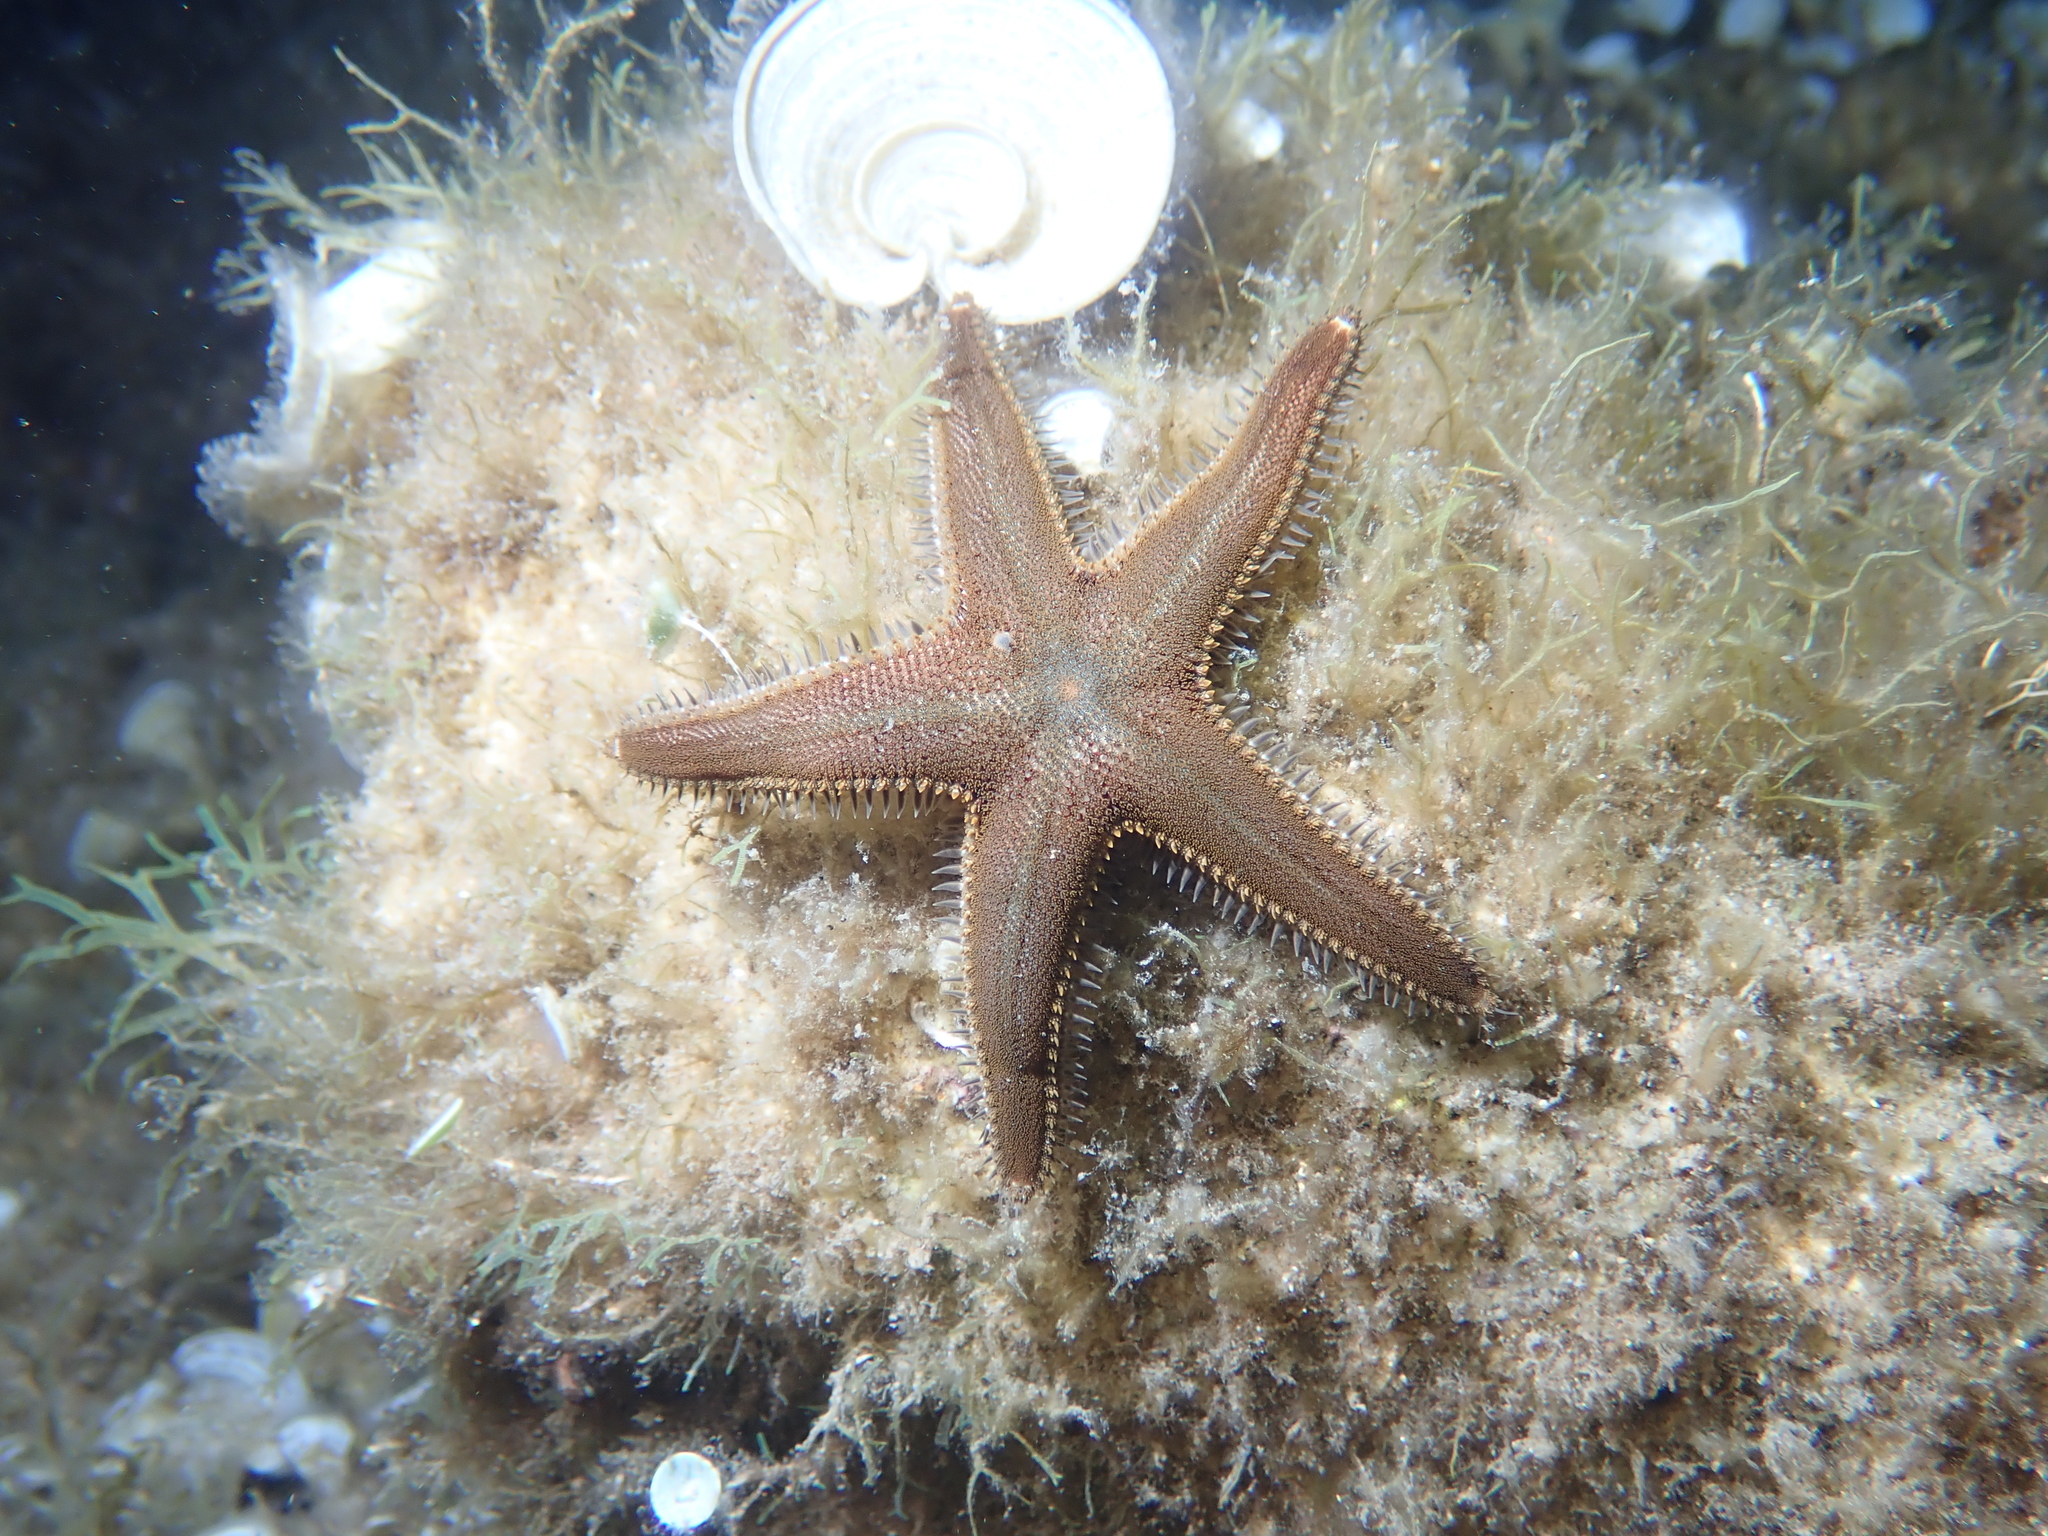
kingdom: Animalia
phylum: Echinodermata
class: Asteroidea
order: Paxillosida
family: Astropectinidae
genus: Astropecten
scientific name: Astropecten spinulosus
